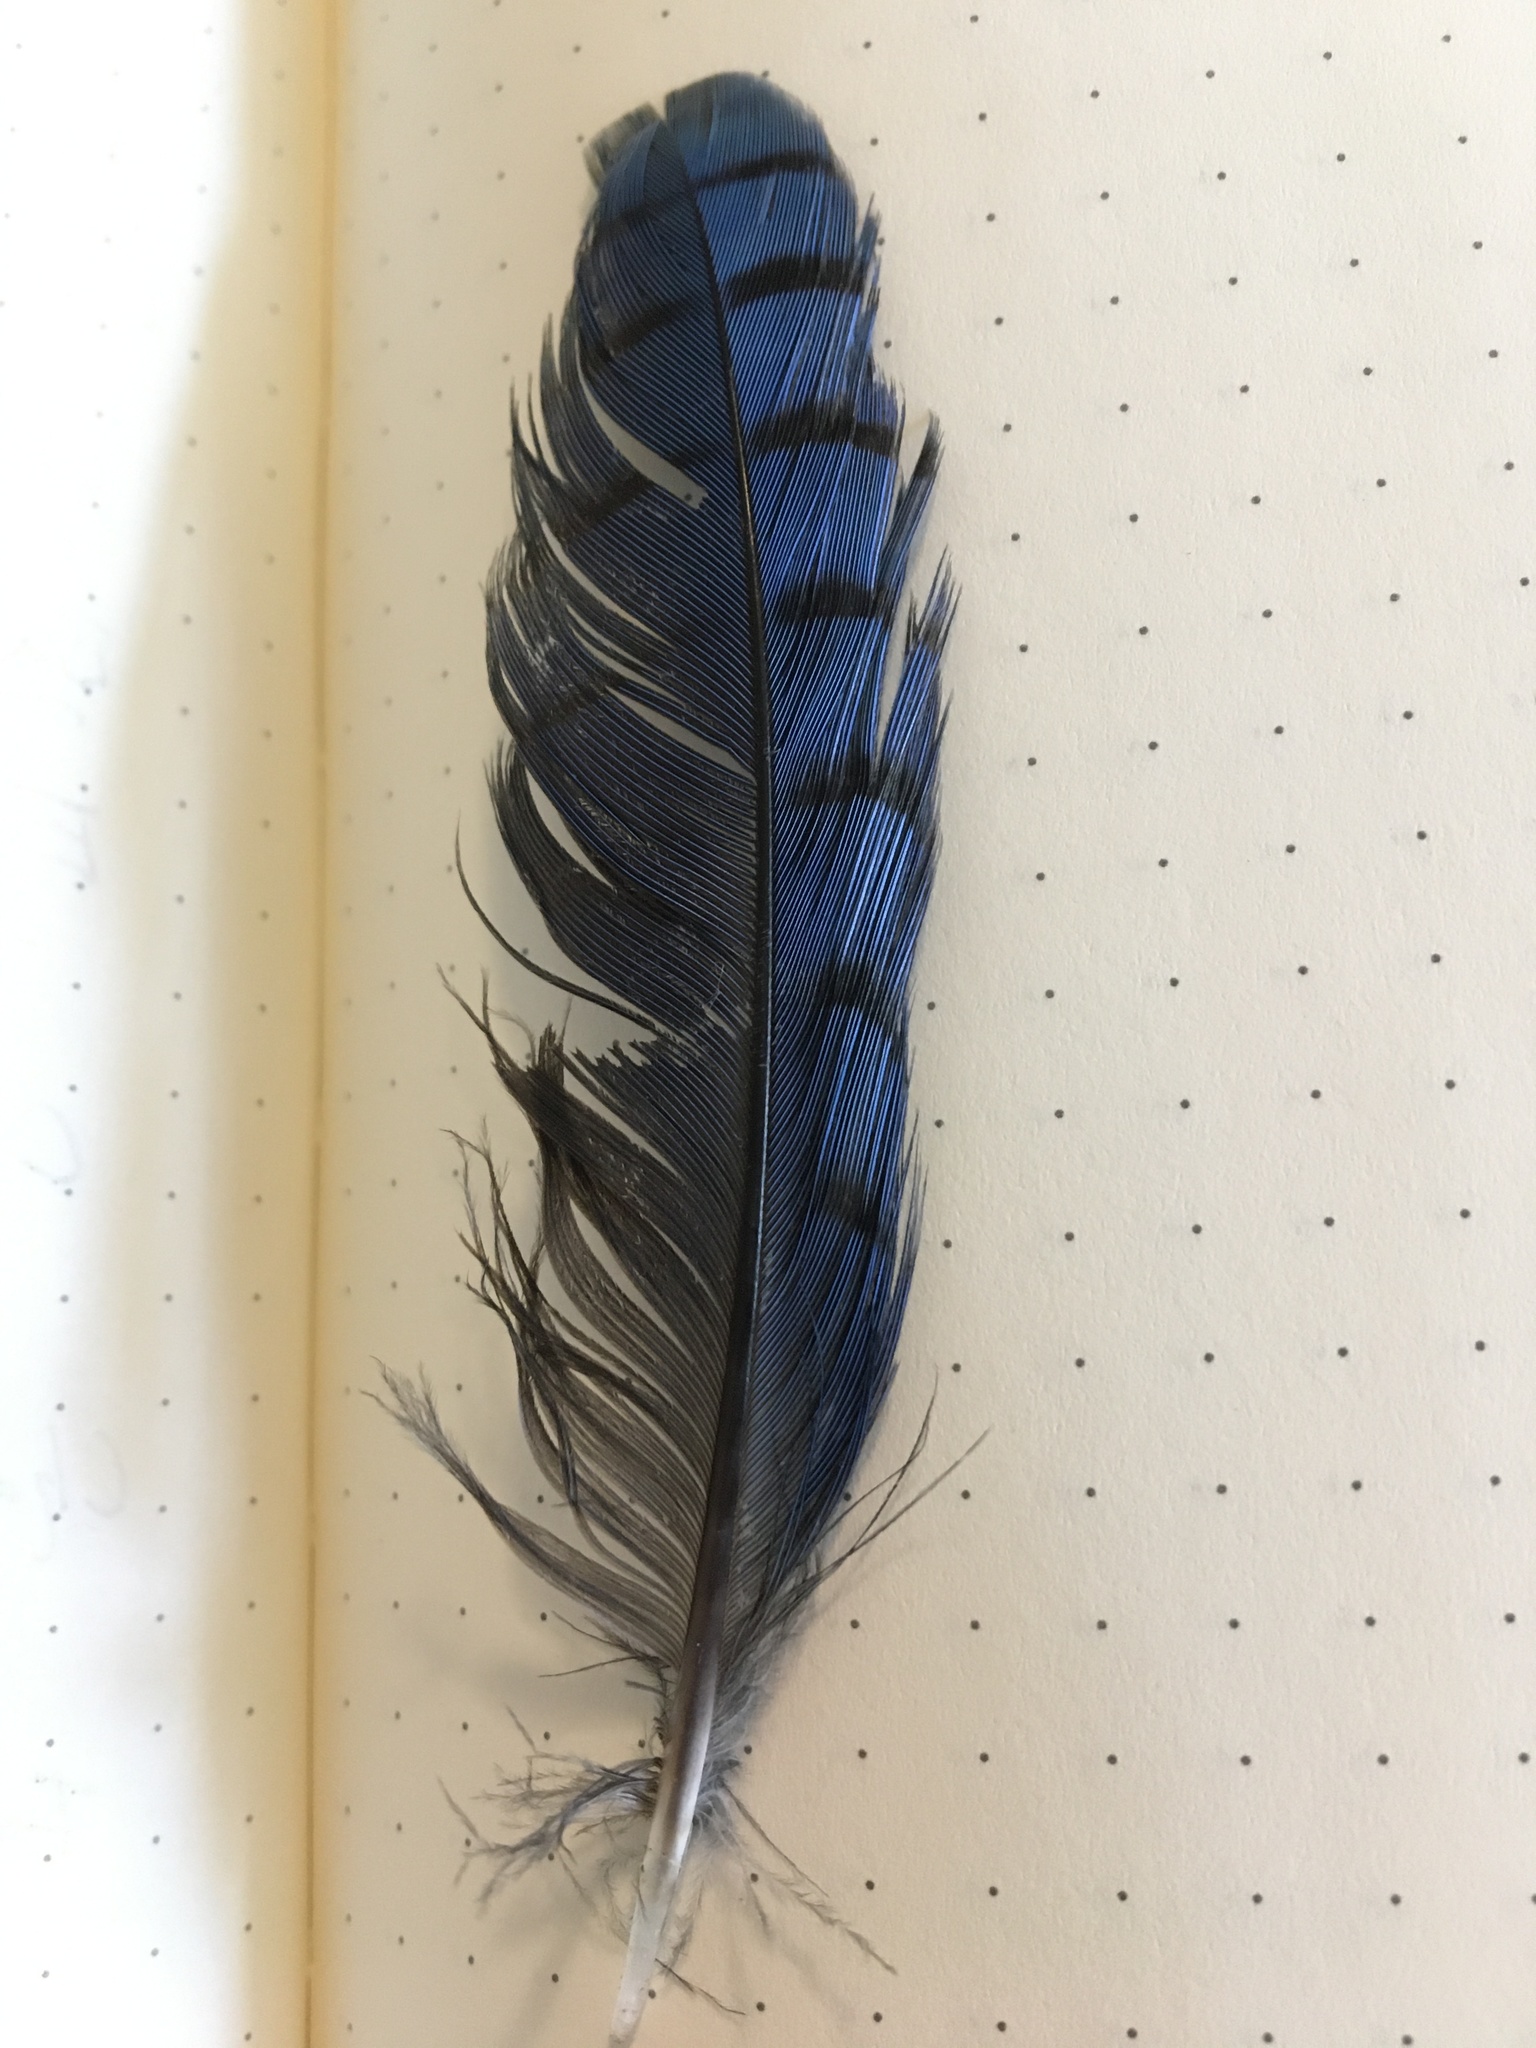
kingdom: Animalia
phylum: Chordata
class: Aves
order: Passeriformes
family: Corvidae
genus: Cyanocitta
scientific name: Cyanocitta stelleri
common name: Steller's jay
